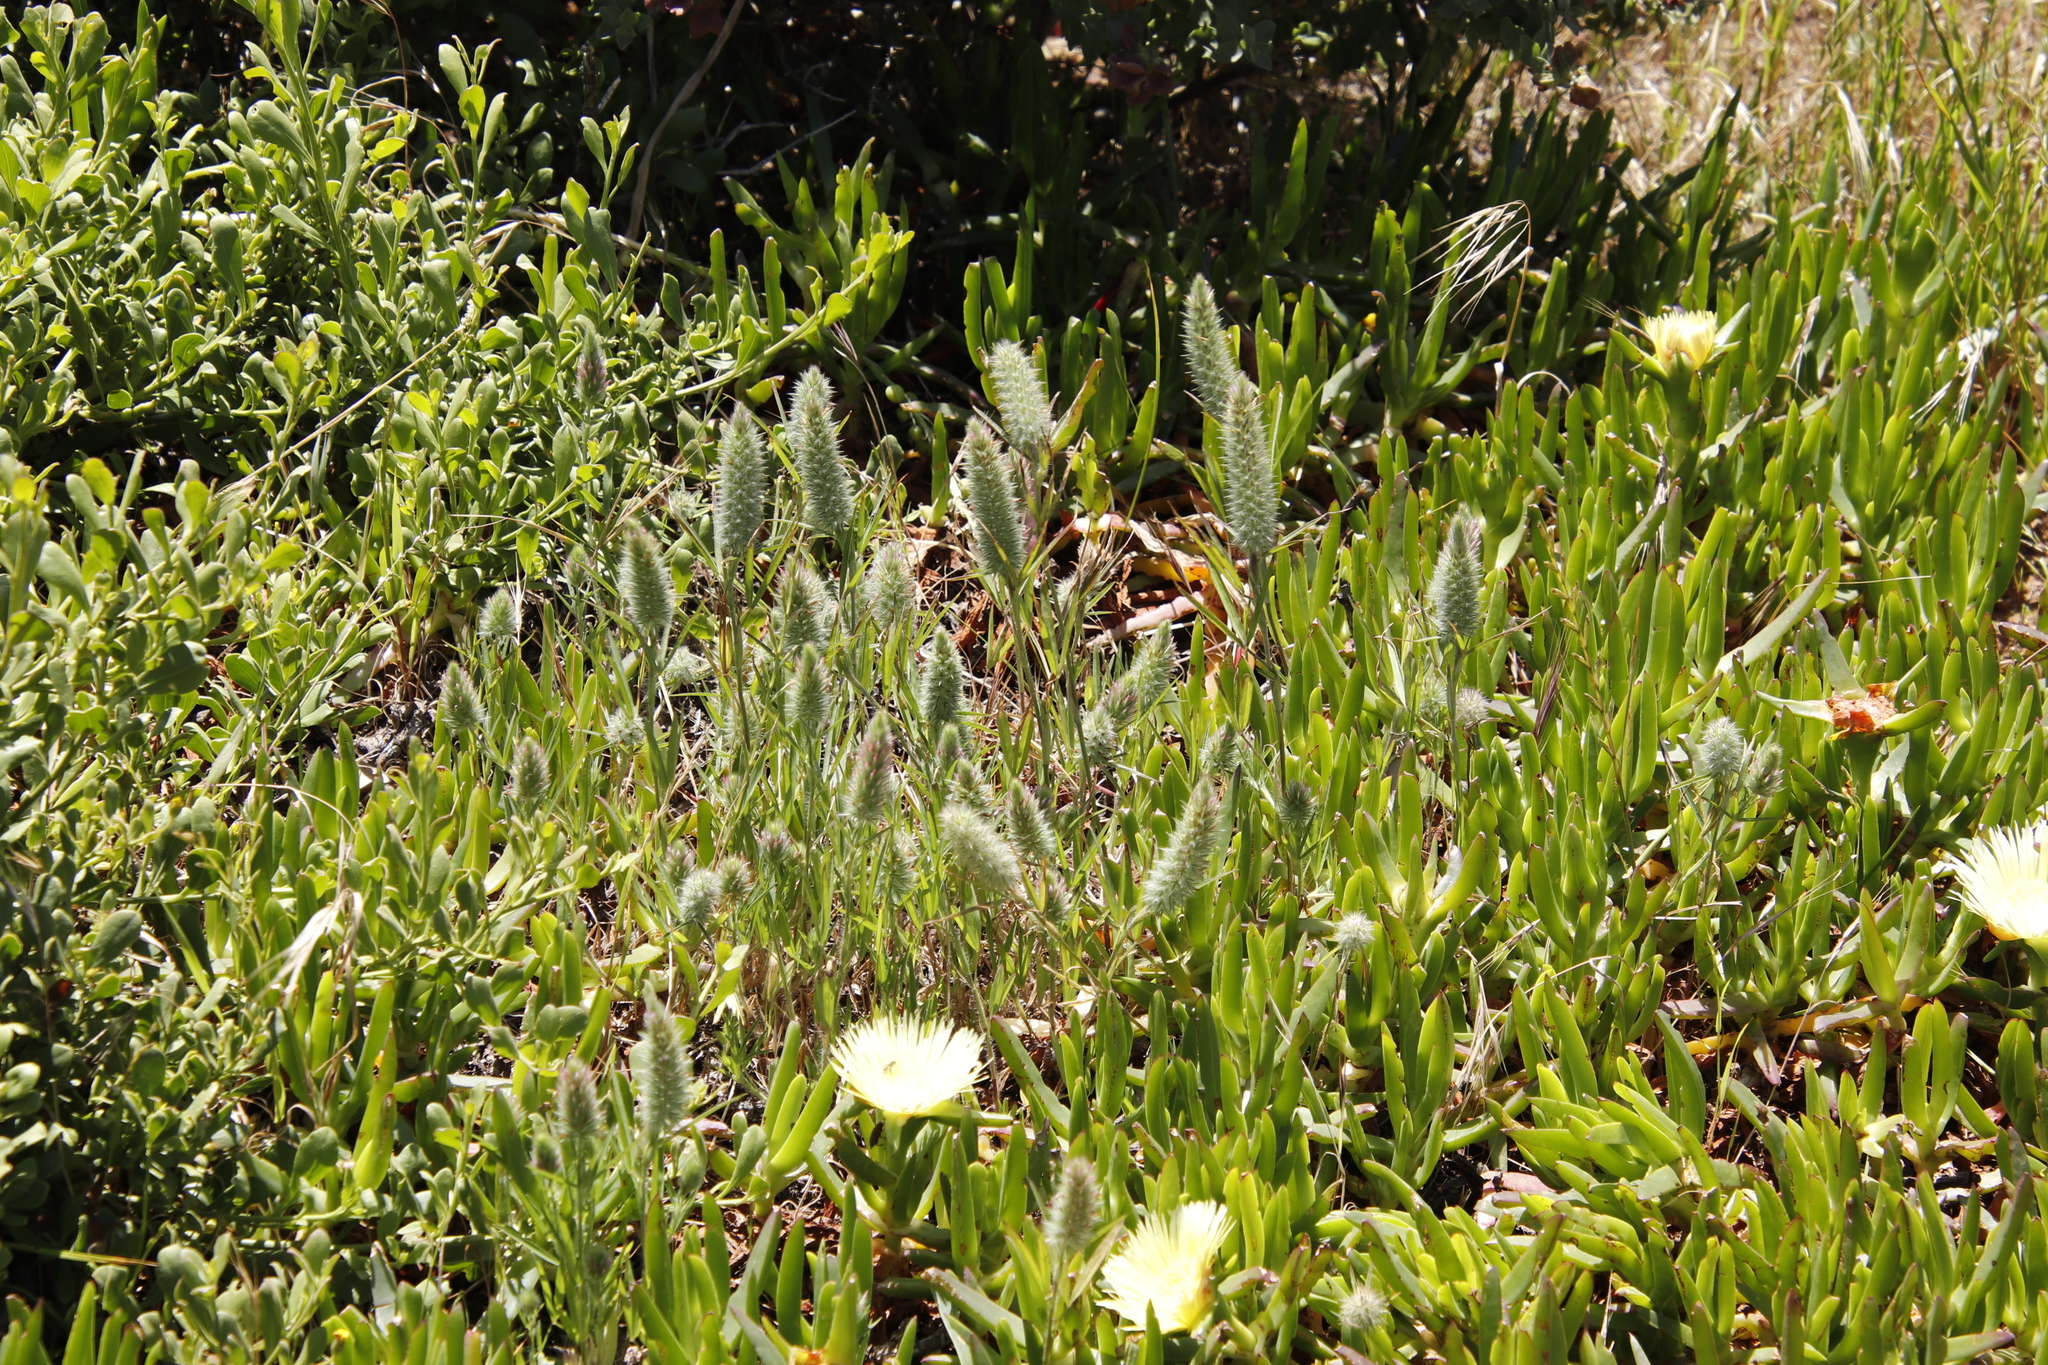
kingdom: Plantae
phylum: Tracheophyta
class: Magnoliopsida
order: Fabales
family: Fabaceae
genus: Trifolium
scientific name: Trifolium angustifolium
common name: Narrow clover
